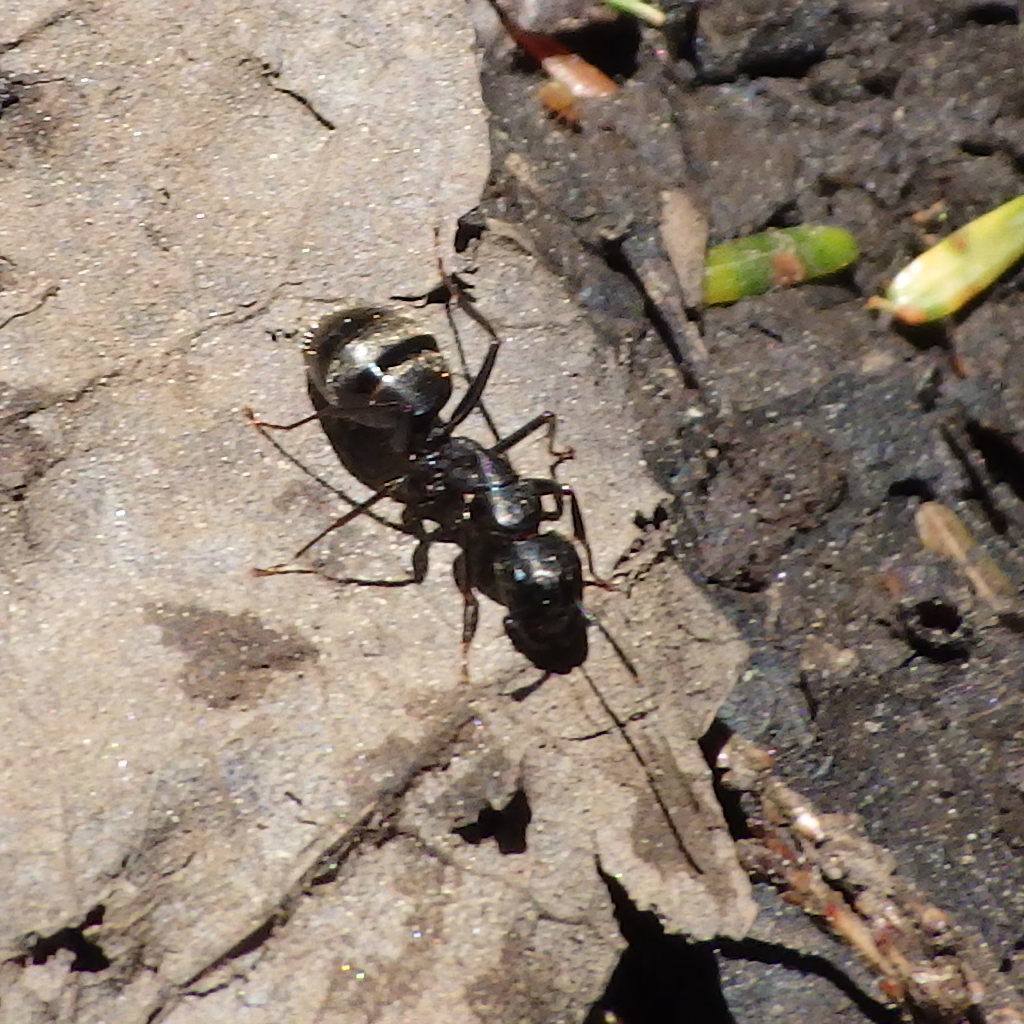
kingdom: Animalia
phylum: Arthropoda
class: Insecta
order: Hymenoptera
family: Formicidae
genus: Camponotus
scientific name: Camponotus pennsylvanicus
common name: Black carpenter ant
